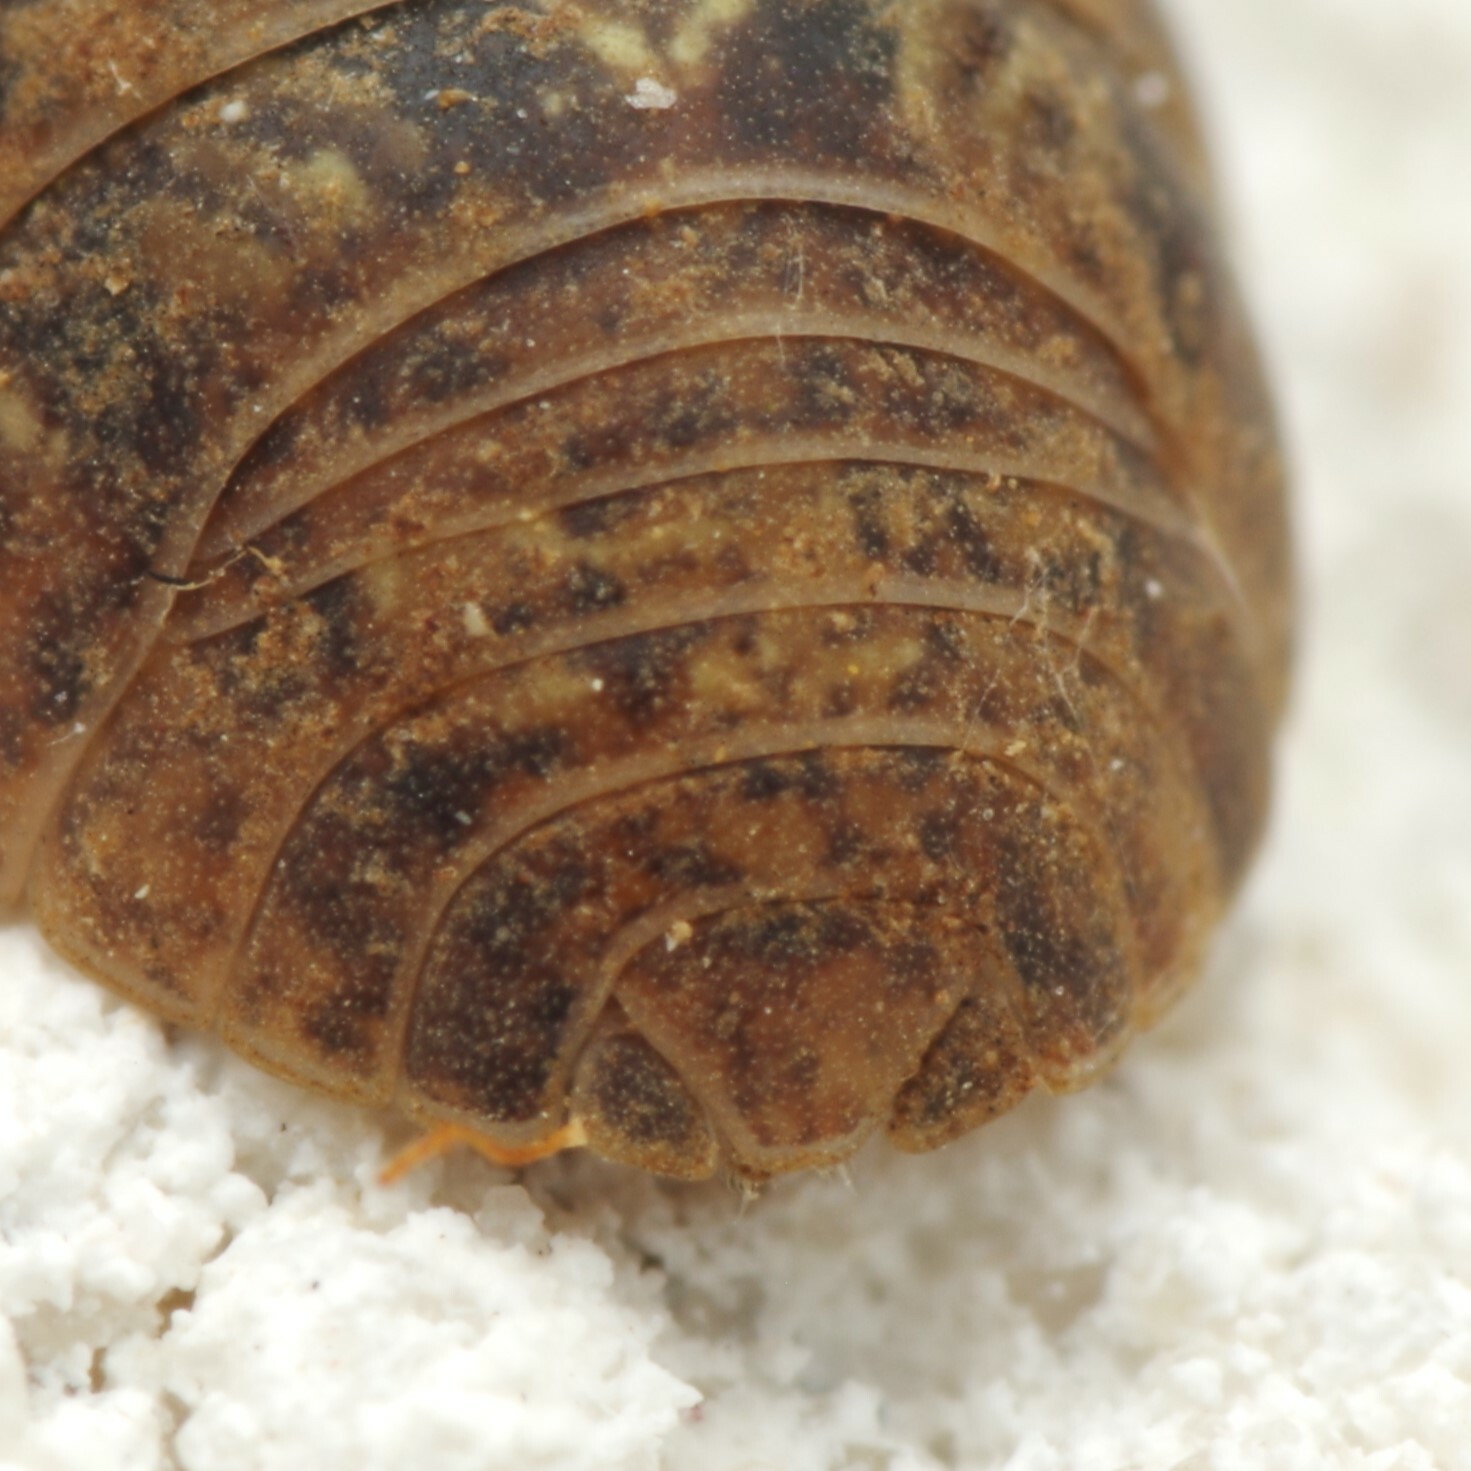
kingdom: Animalia
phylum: Arthropoda
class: Malacostraca
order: Isopoda
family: Armadillidiidae
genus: Armadillidium
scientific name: Armadillidium vulgare
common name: Common pill woodlouse
